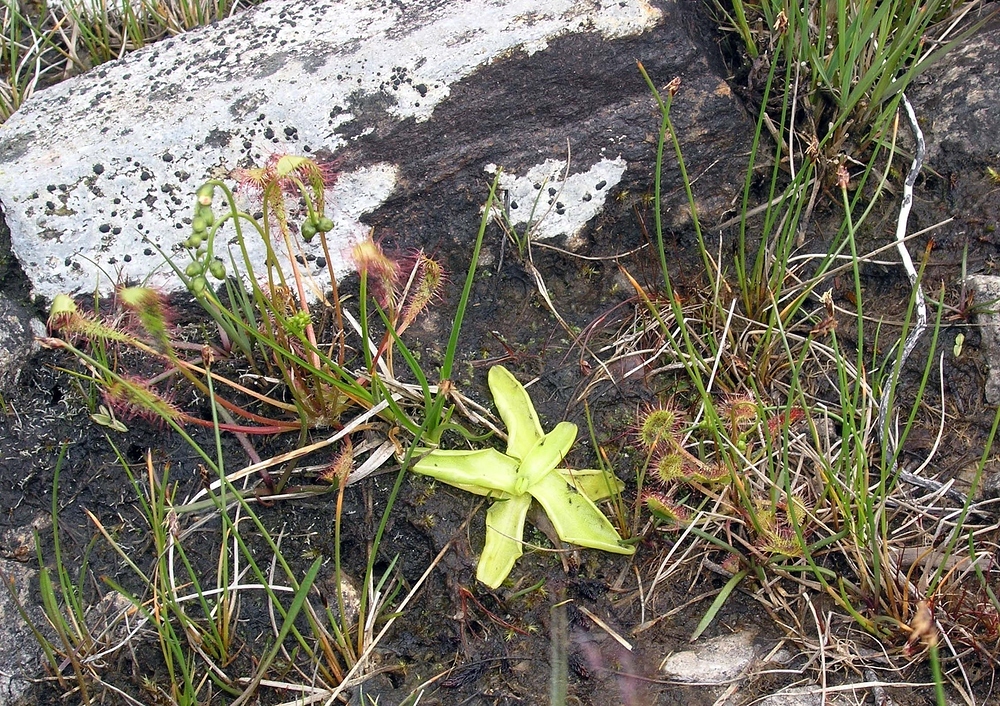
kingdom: Plantae
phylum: Tracheophyta
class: Magnoliopsida
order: Lamiales
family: Lentibulariaceae
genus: Pinguicula
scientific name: Pinguicula vulgaris
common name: Common butterwort
